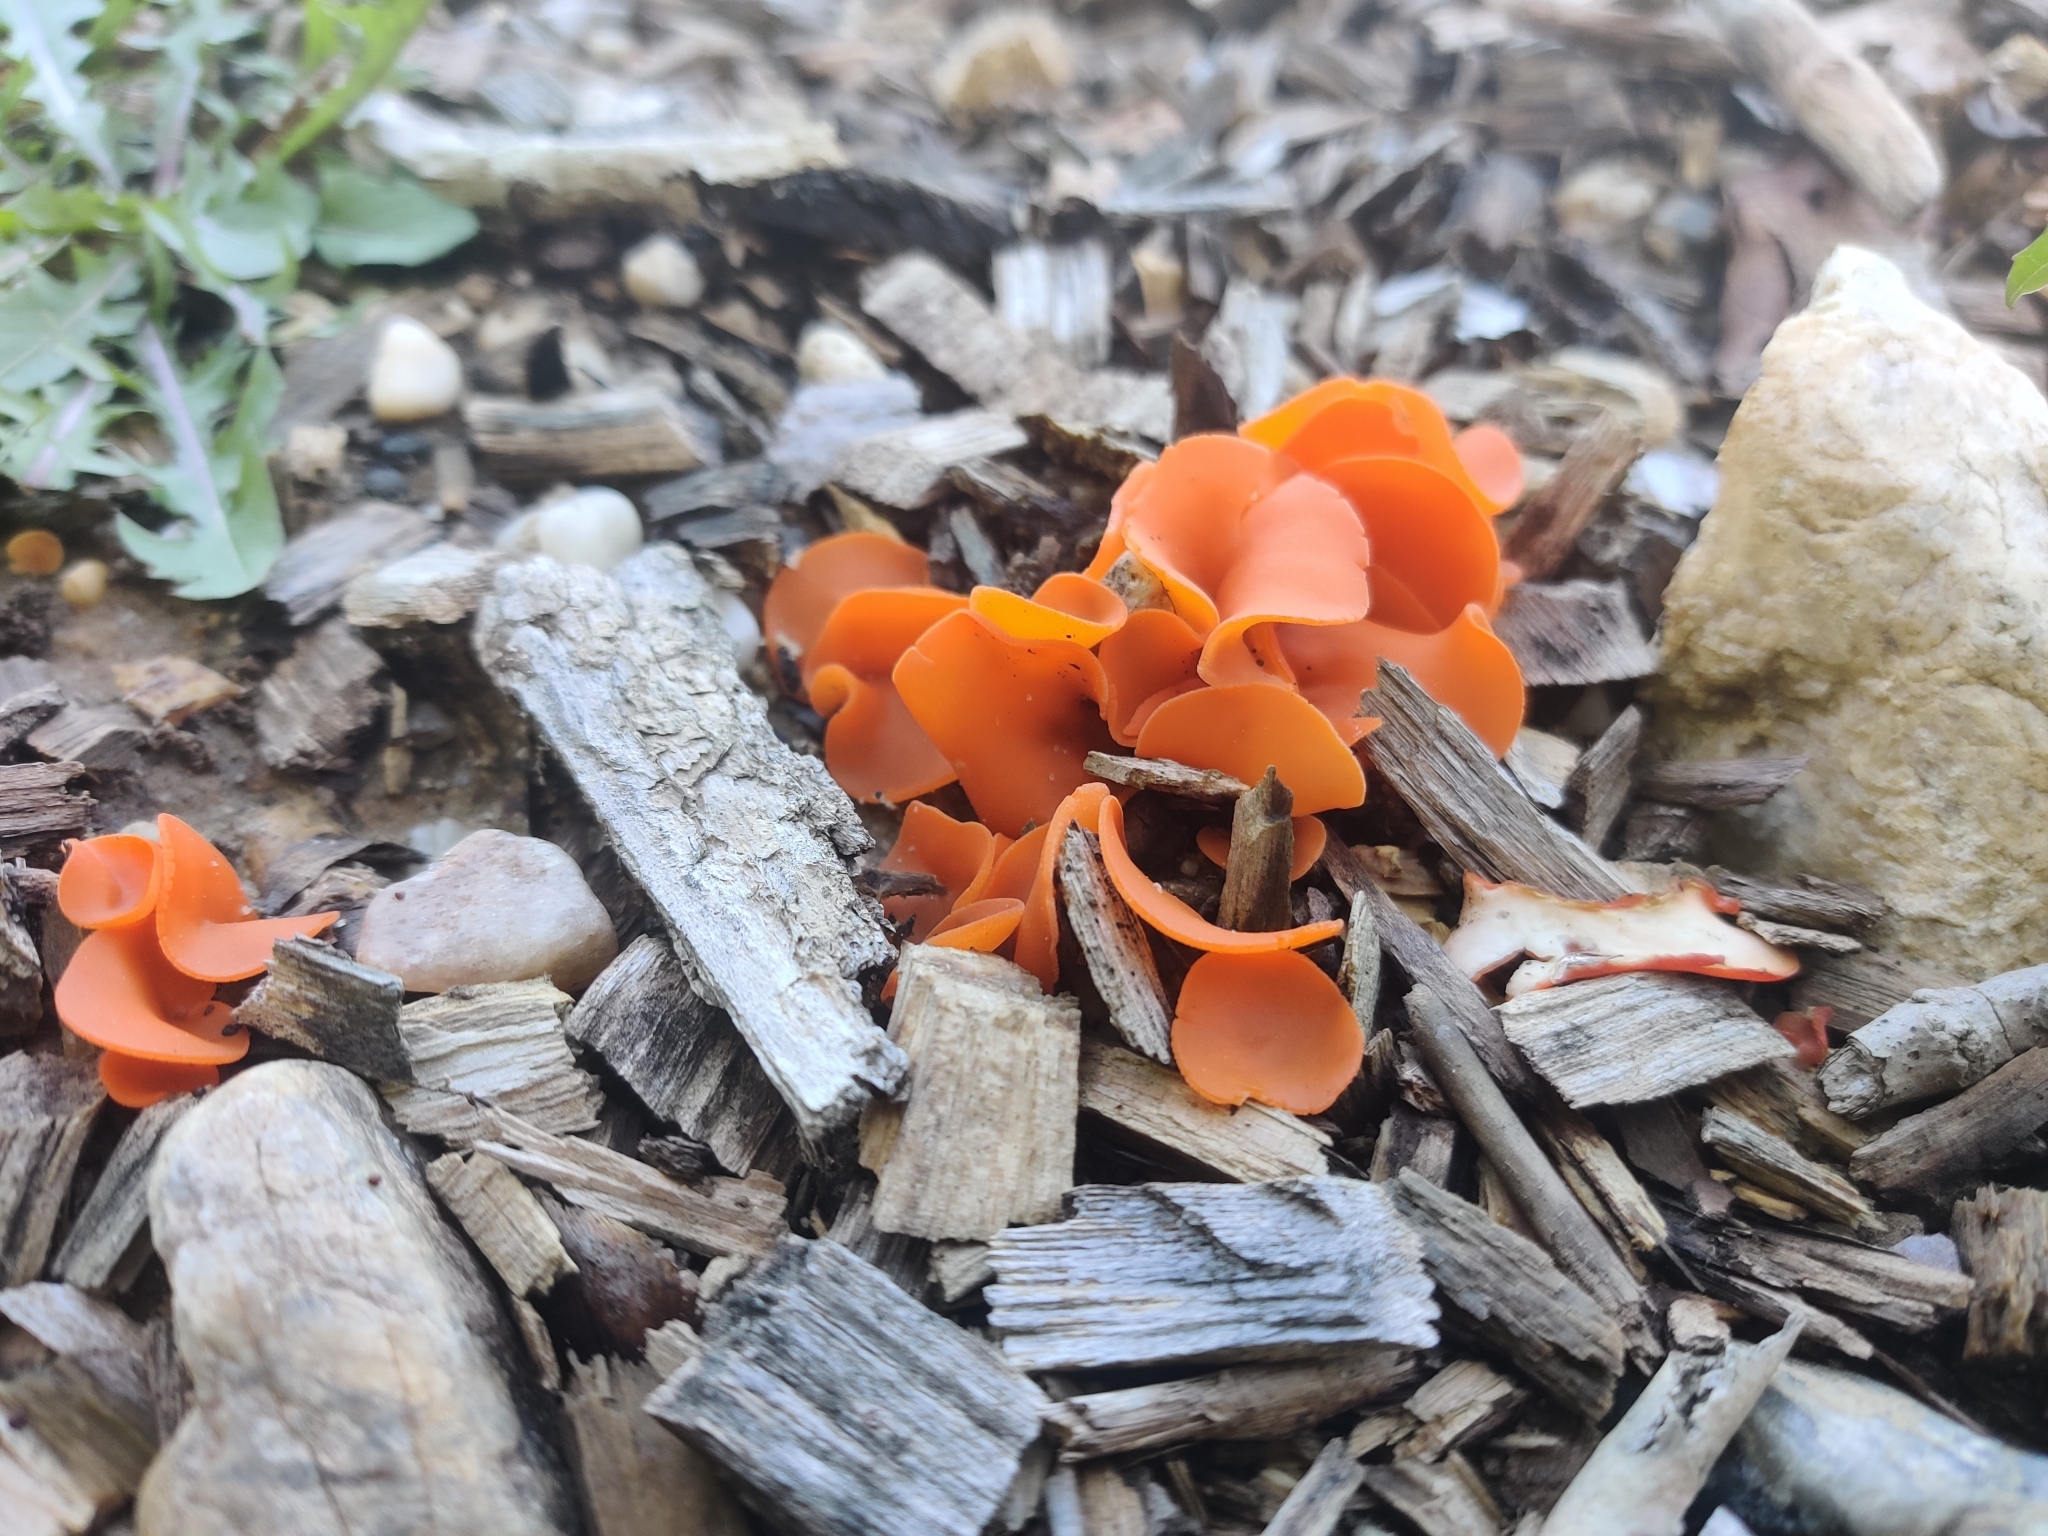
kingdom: Fungi
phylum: Ascomycota
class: Pezizomycetes
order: Pezizales
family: Pyronemataceae
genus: Aleuria
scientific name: Aleuria aurantia
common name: Orange peel fungus
